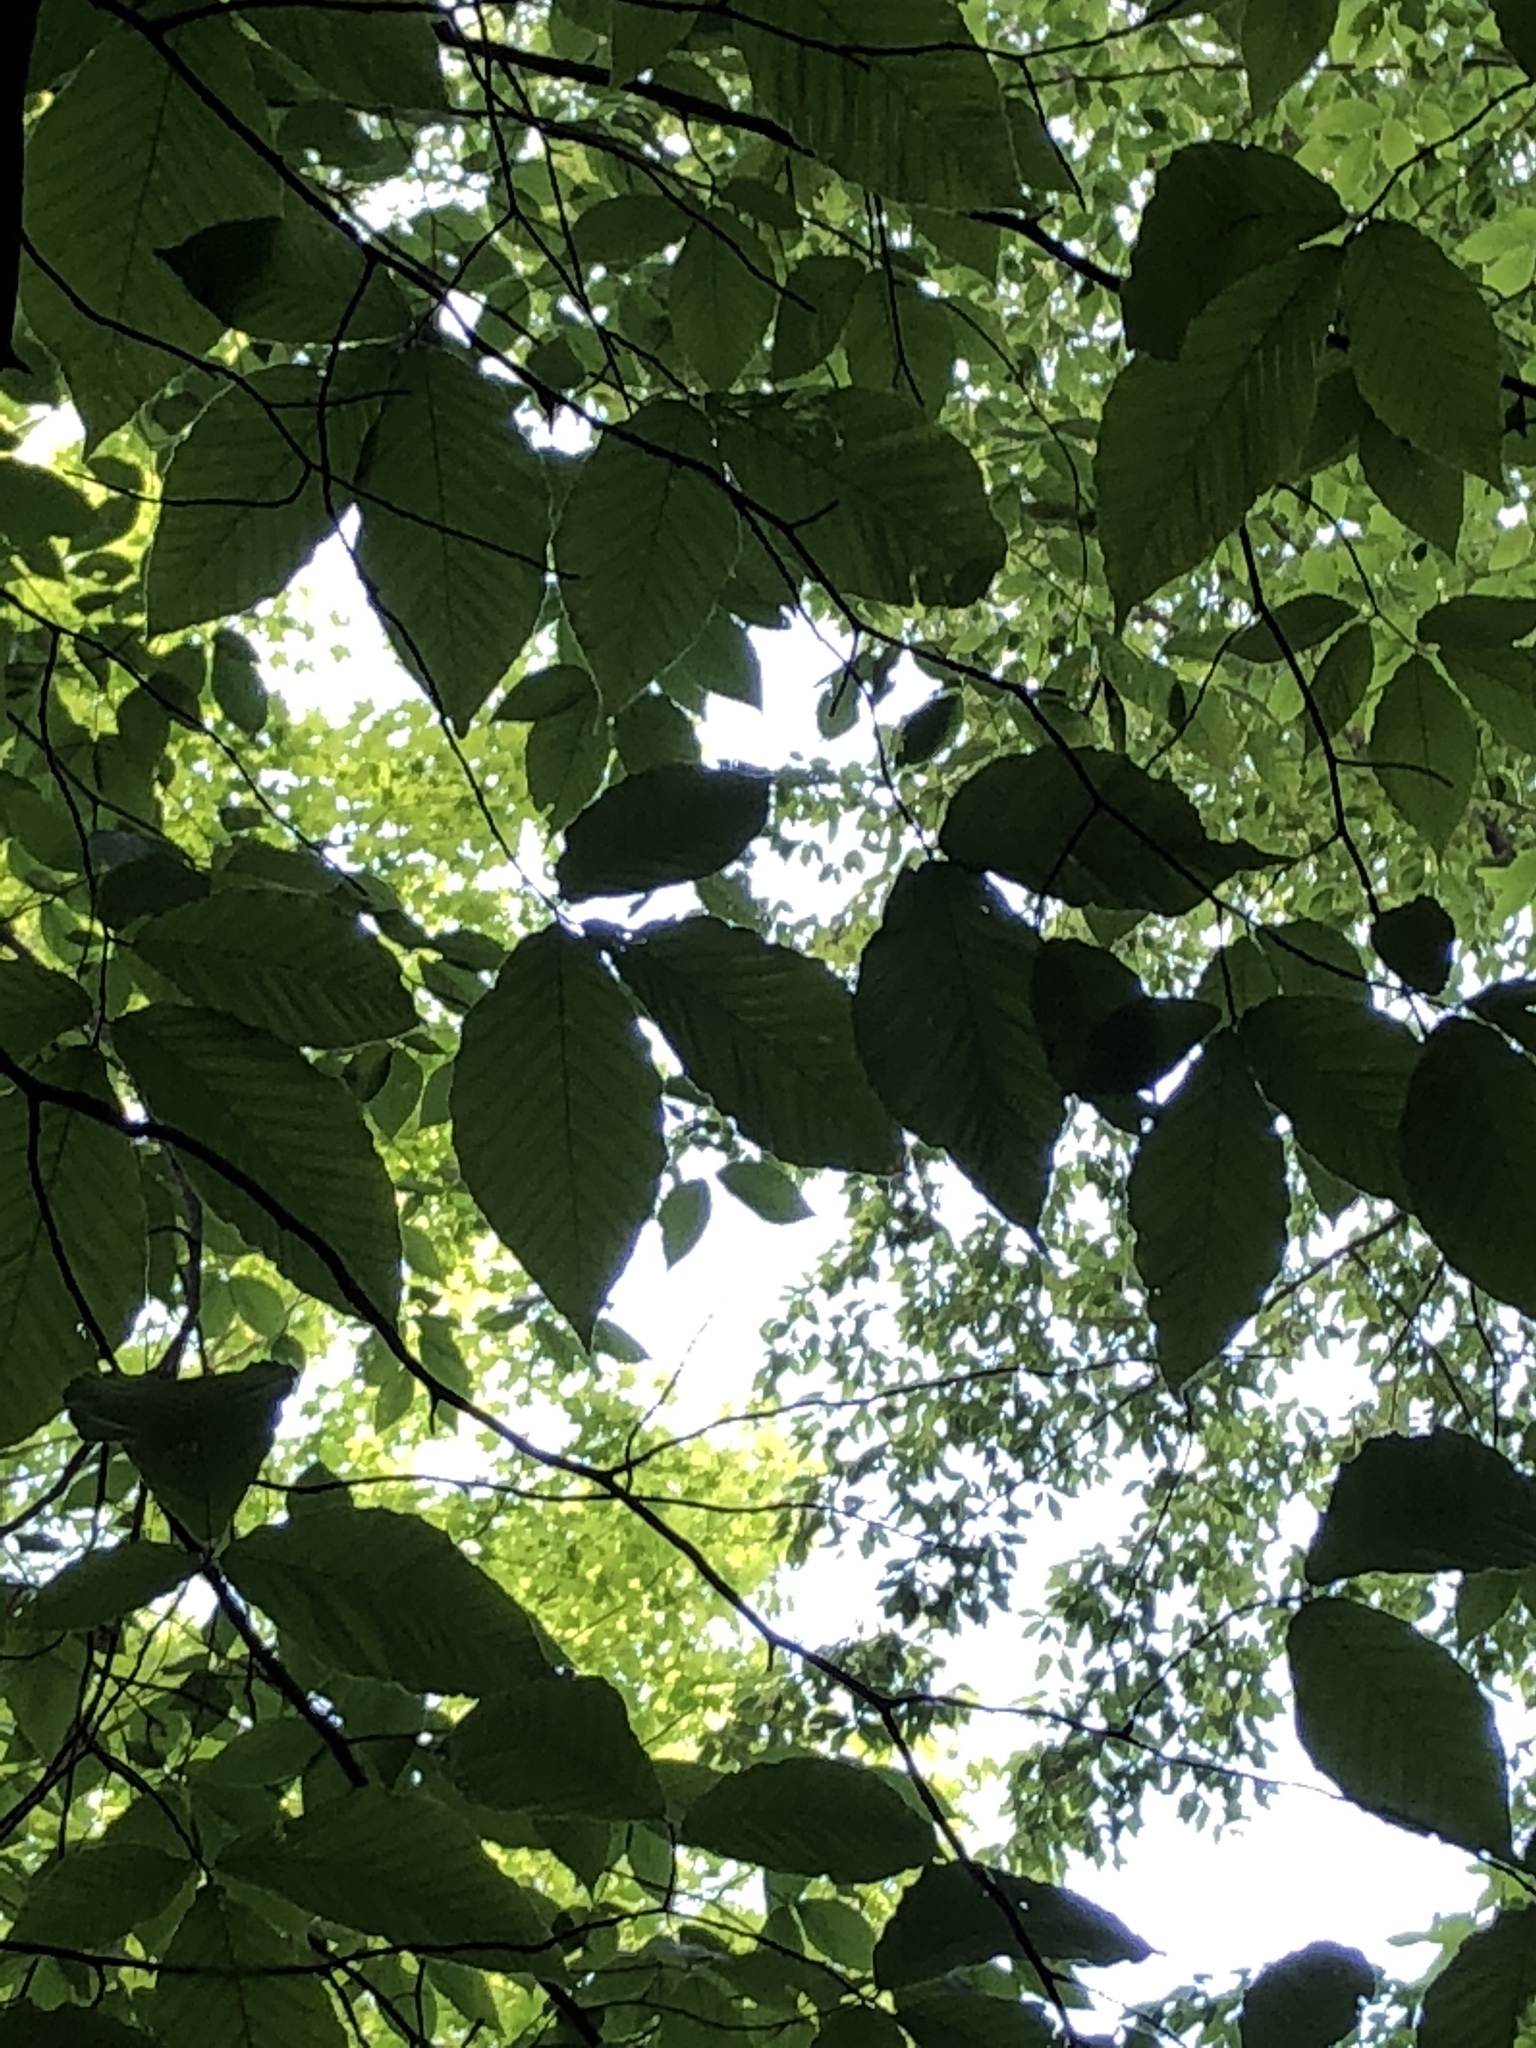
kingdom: Plantae
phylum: Tracheophyta
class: Magnoliopsida
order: Fagales
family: Fagaceae
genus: Fagus
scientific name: Fagus grandifolia
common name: American beech
